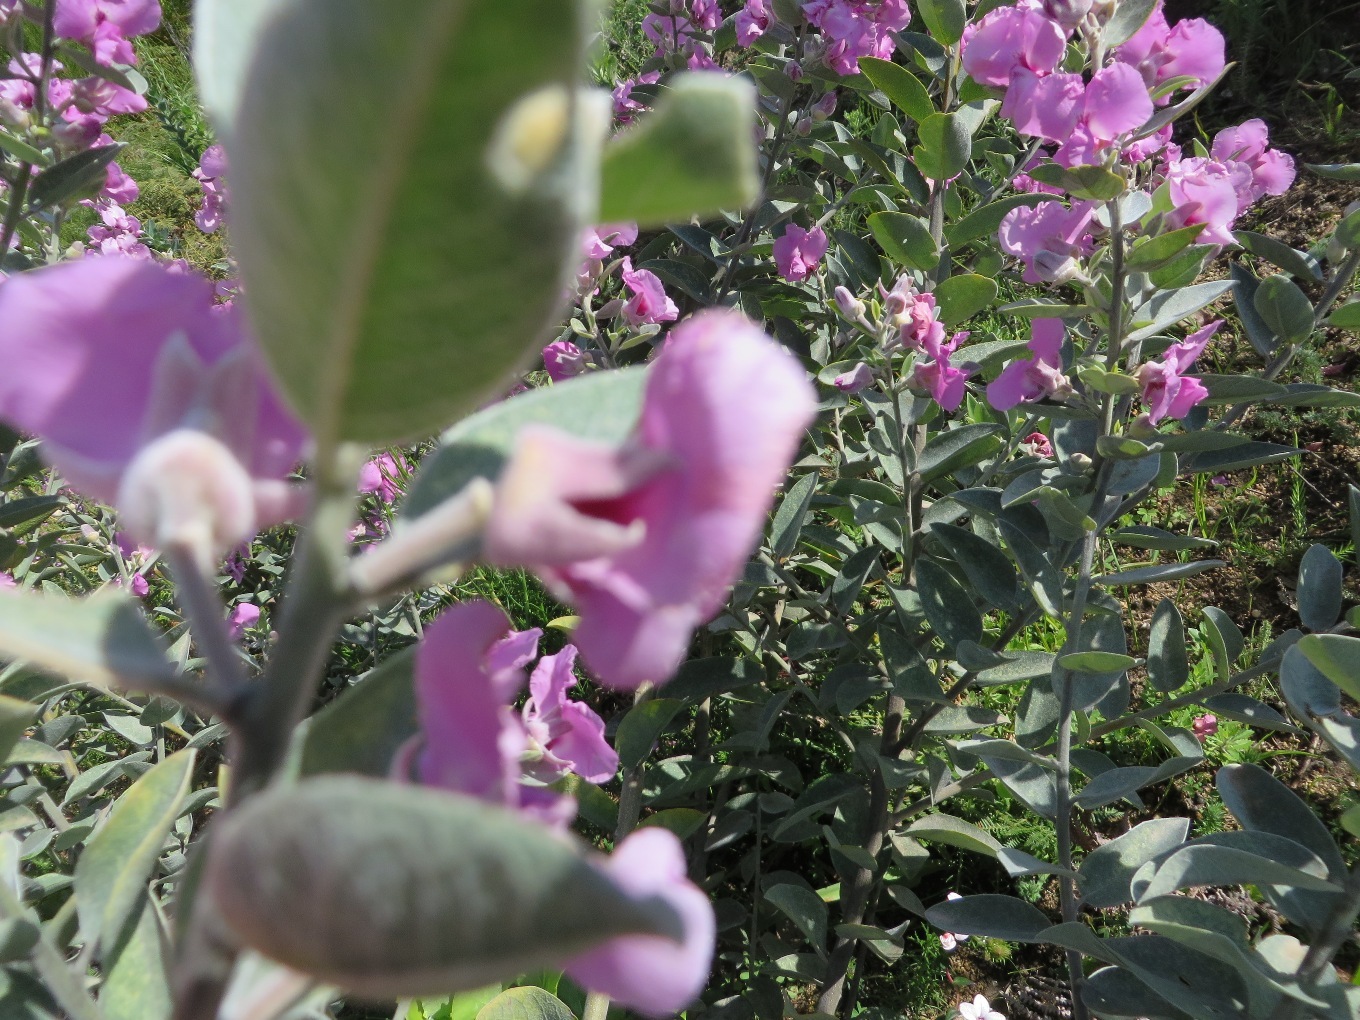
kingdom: Plantae
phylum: Tracheophyta
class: Magnoliopsida
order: Fabales
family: Fabaceae
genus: Podalyria
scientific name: Podalyria calyptrata
